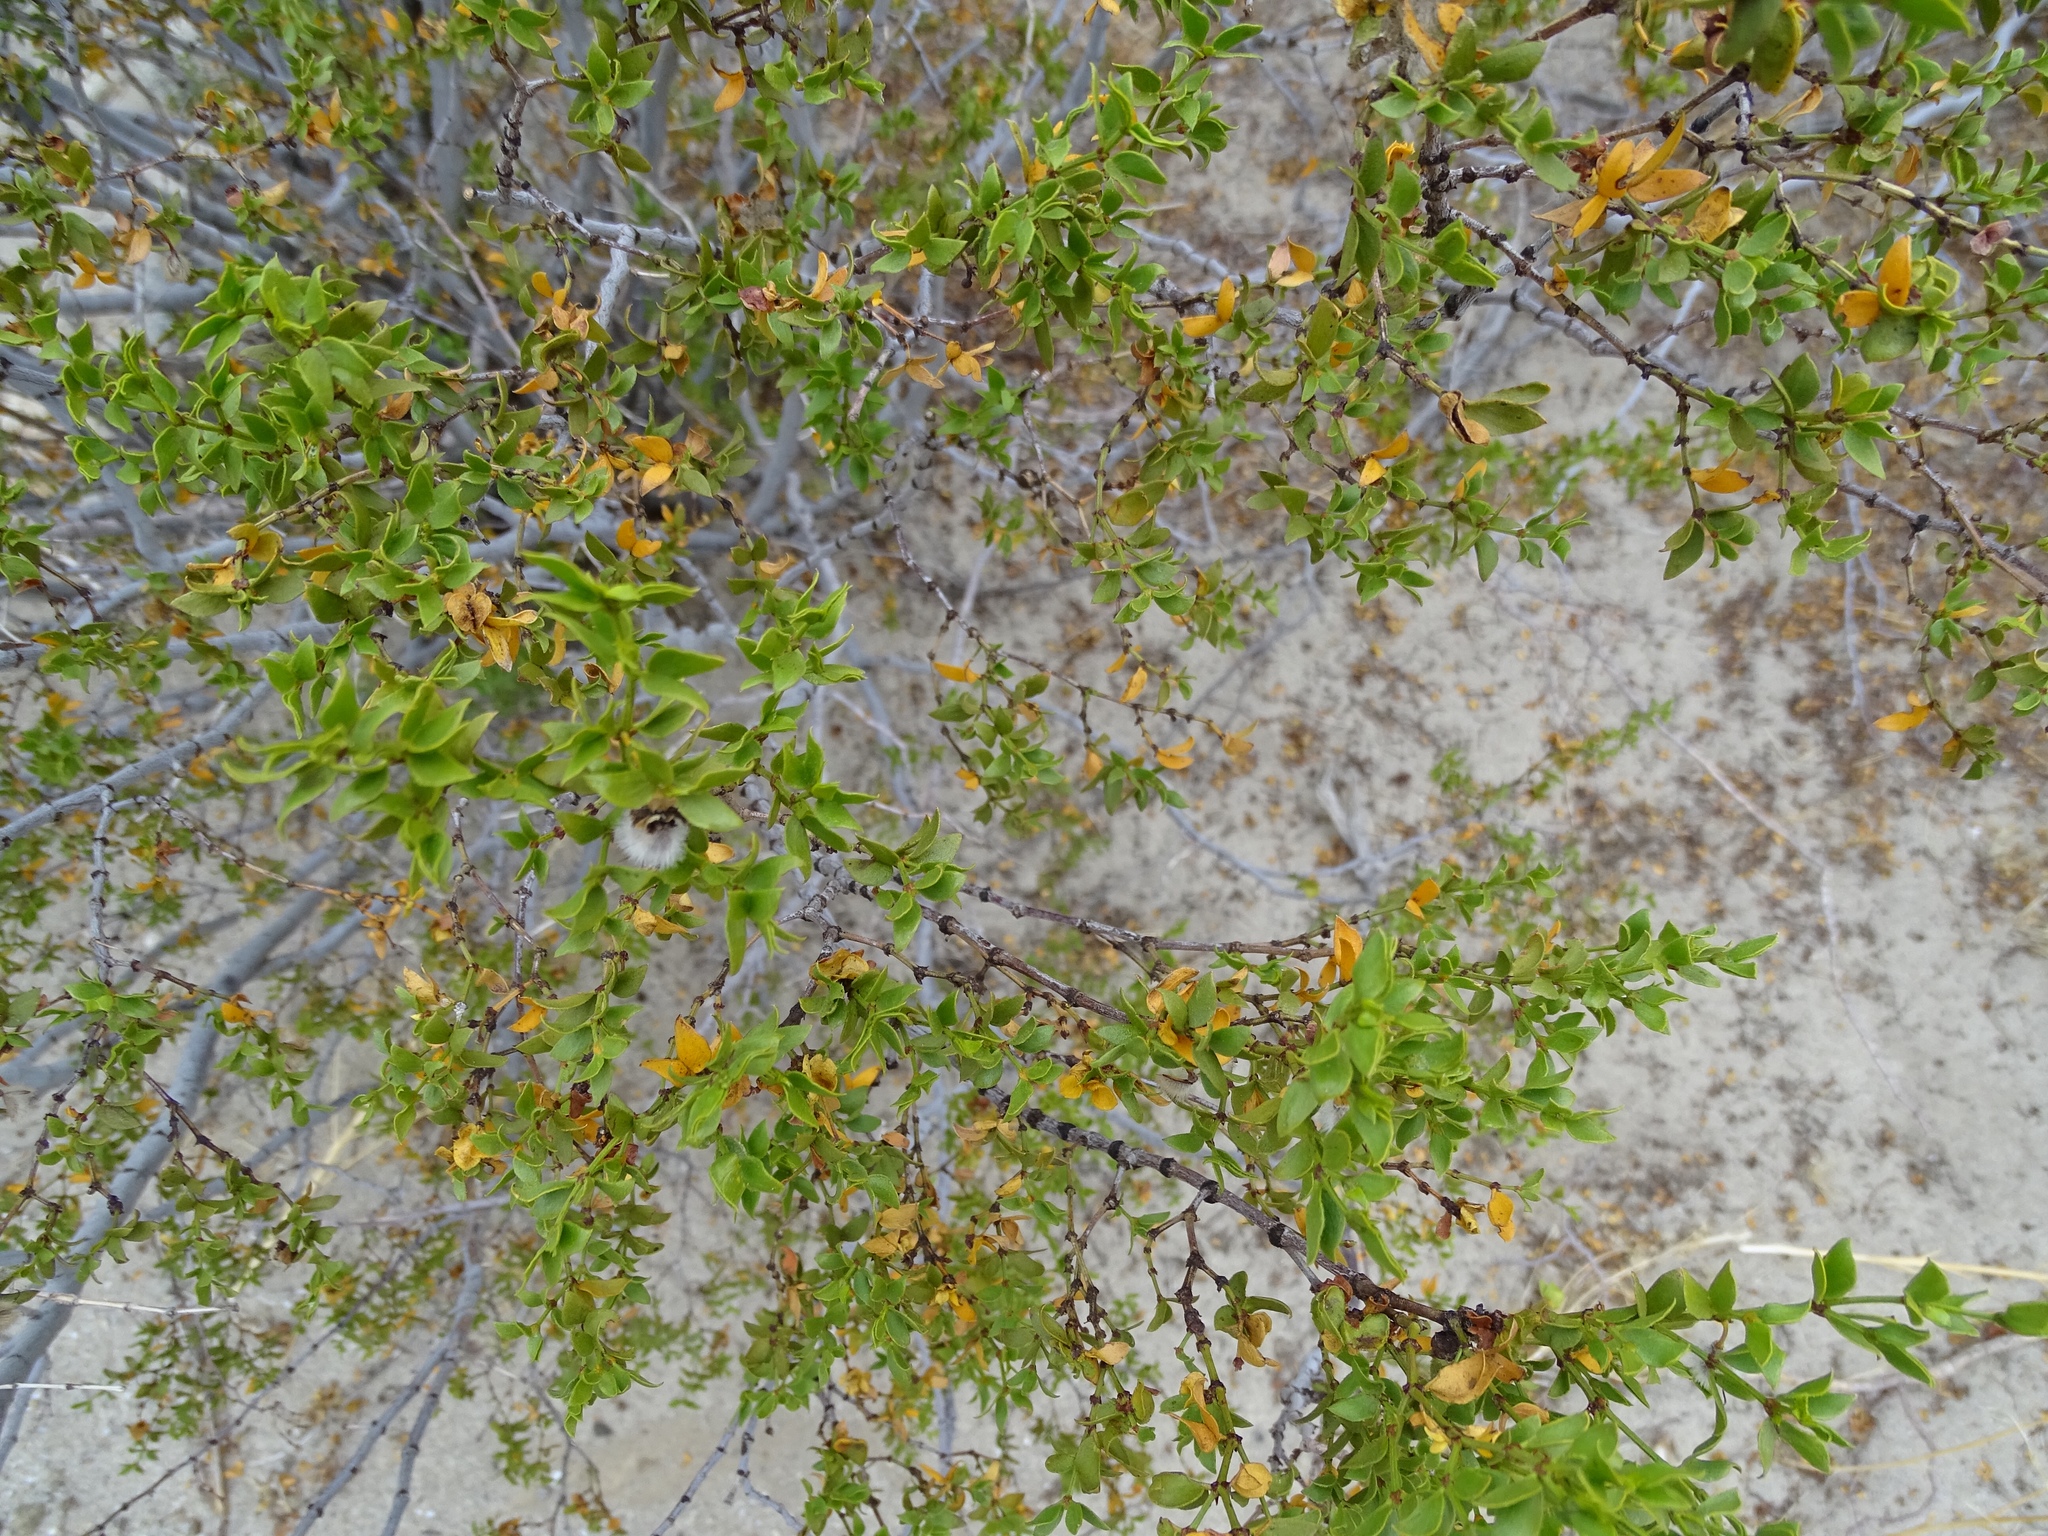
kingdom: Plantae
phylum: Tracheophyta
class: Magnoliopsida
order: Zygophyllales
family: Zygophyllaceae
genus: Larrea
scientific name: Larrea tridentata
